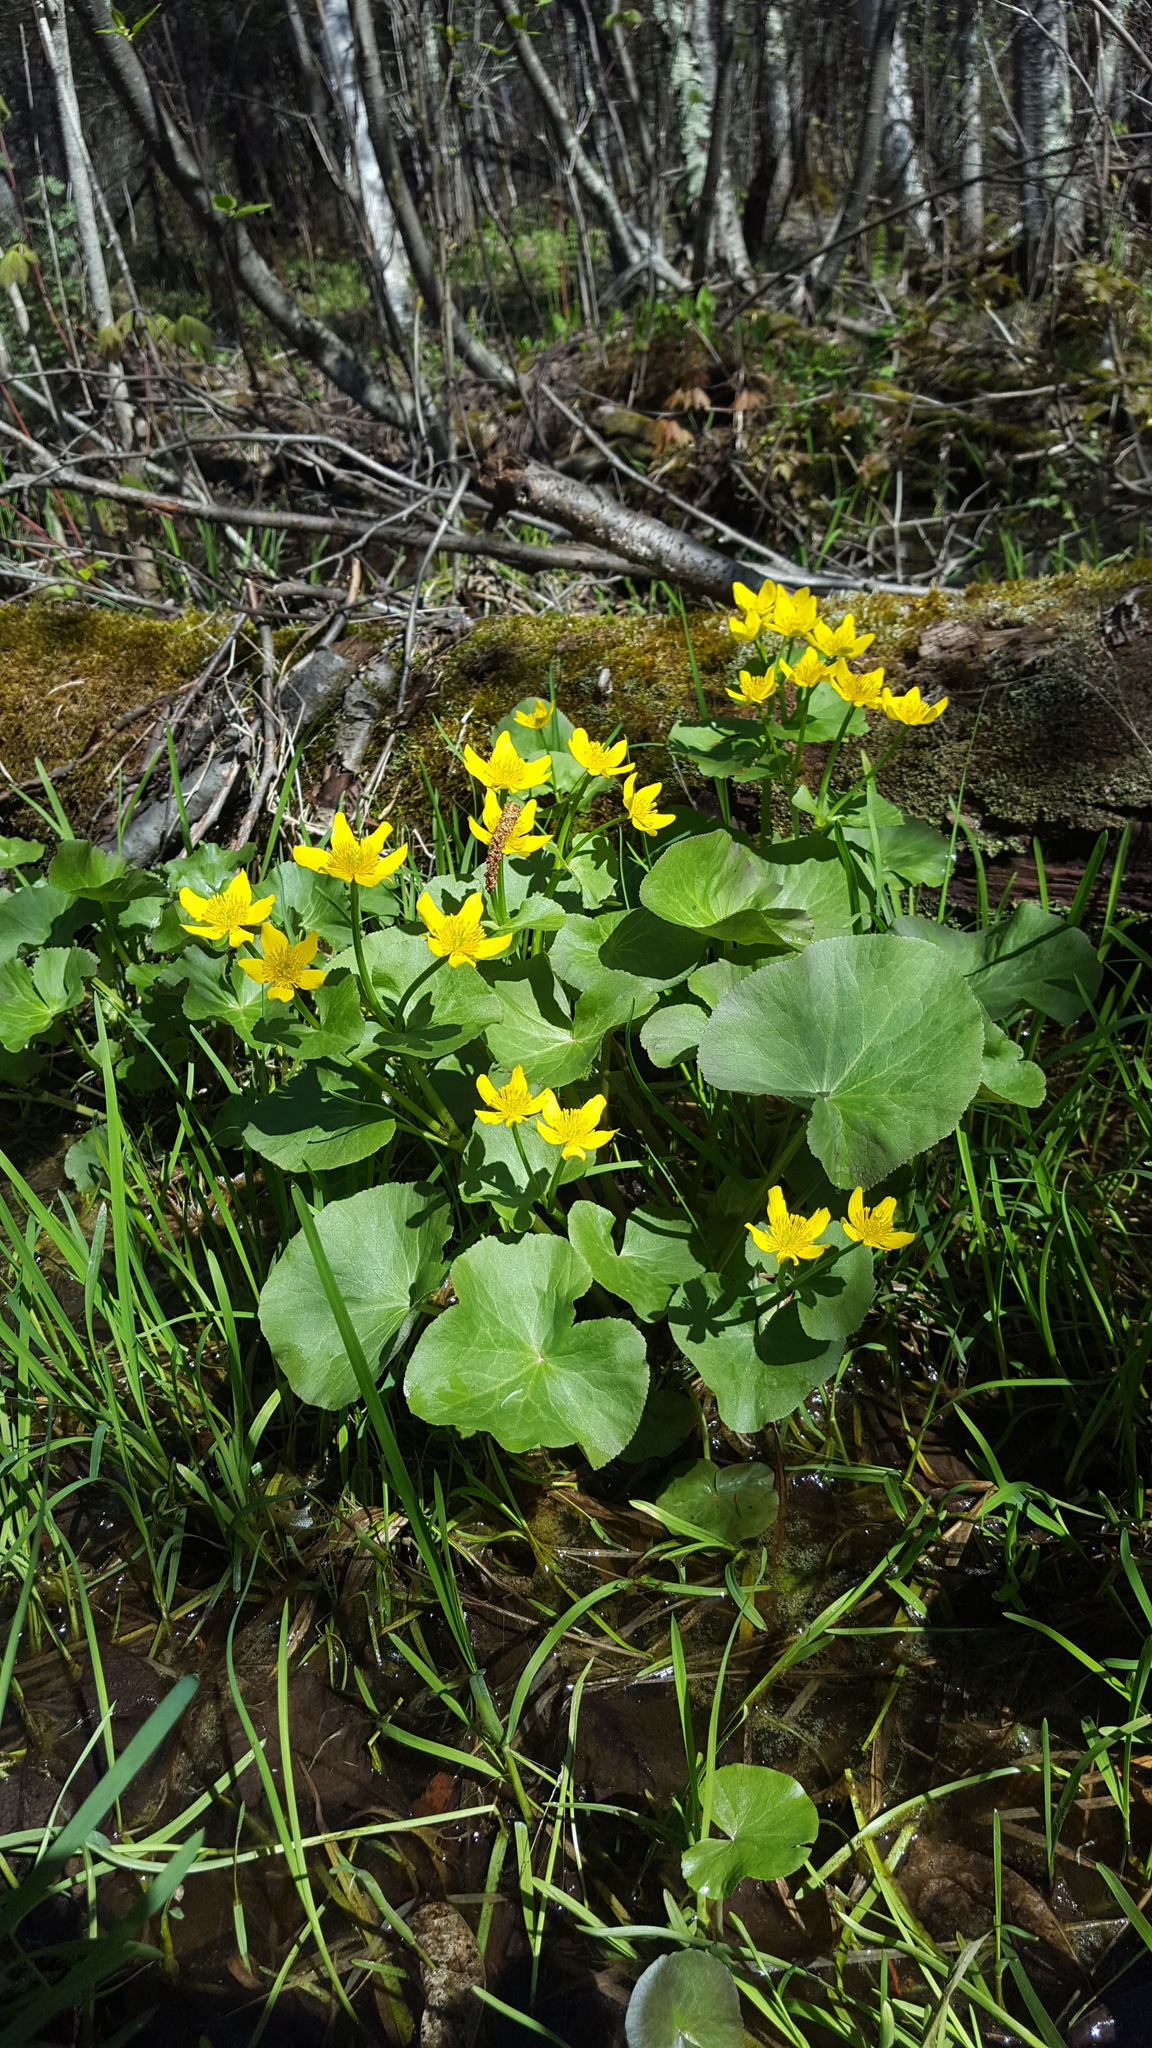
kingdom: Plantae
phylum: Tracheophyta
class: Magnoliopsida
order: Ranunculales
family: Ranunculaceae
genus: Caltha
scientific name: Caltha palustris
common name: Marsh marigold
